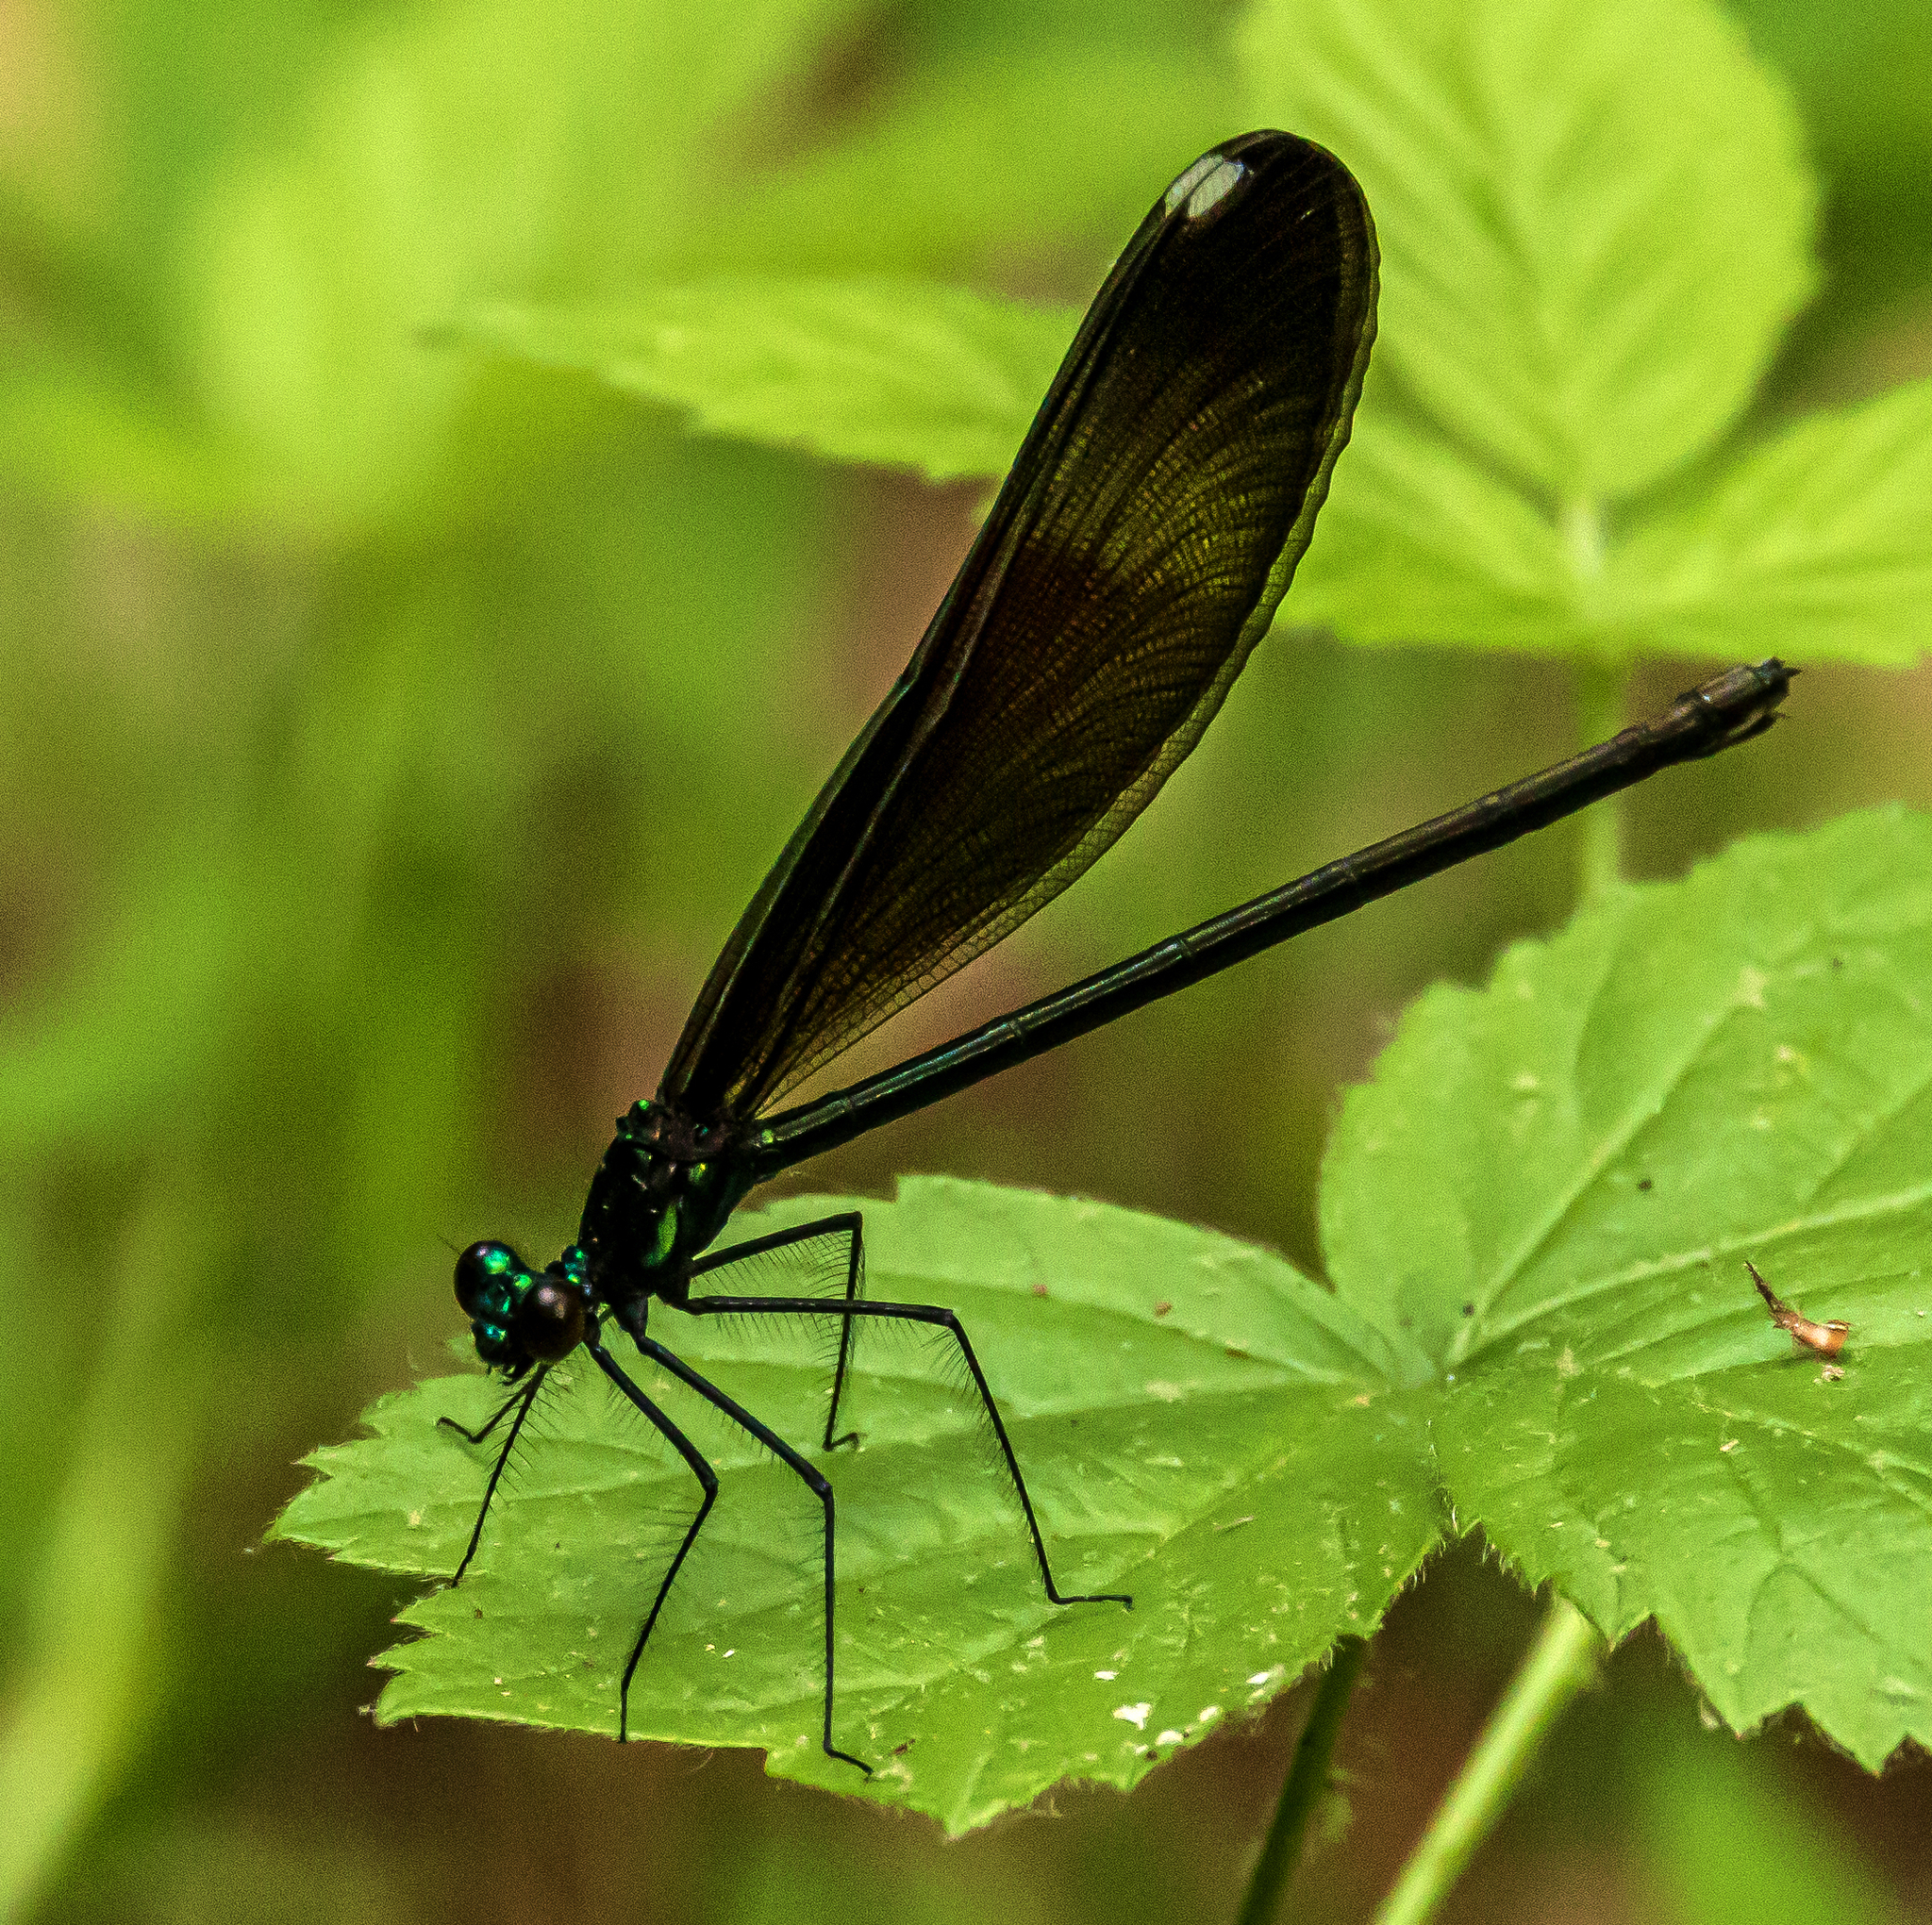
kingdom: Animalia
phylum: Arthropoda
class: Insecta
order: Odonata
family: Calopterygidae
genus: Calopteryx
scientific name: Calopteryx maculata
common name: Ebony jewelwing
